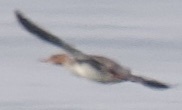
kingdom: Animalia
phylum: Chordata
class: Aves
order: Anseriformes
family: Anatidae
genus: Mergus
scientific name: Mergus serrator
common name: Red-breasted merganser
